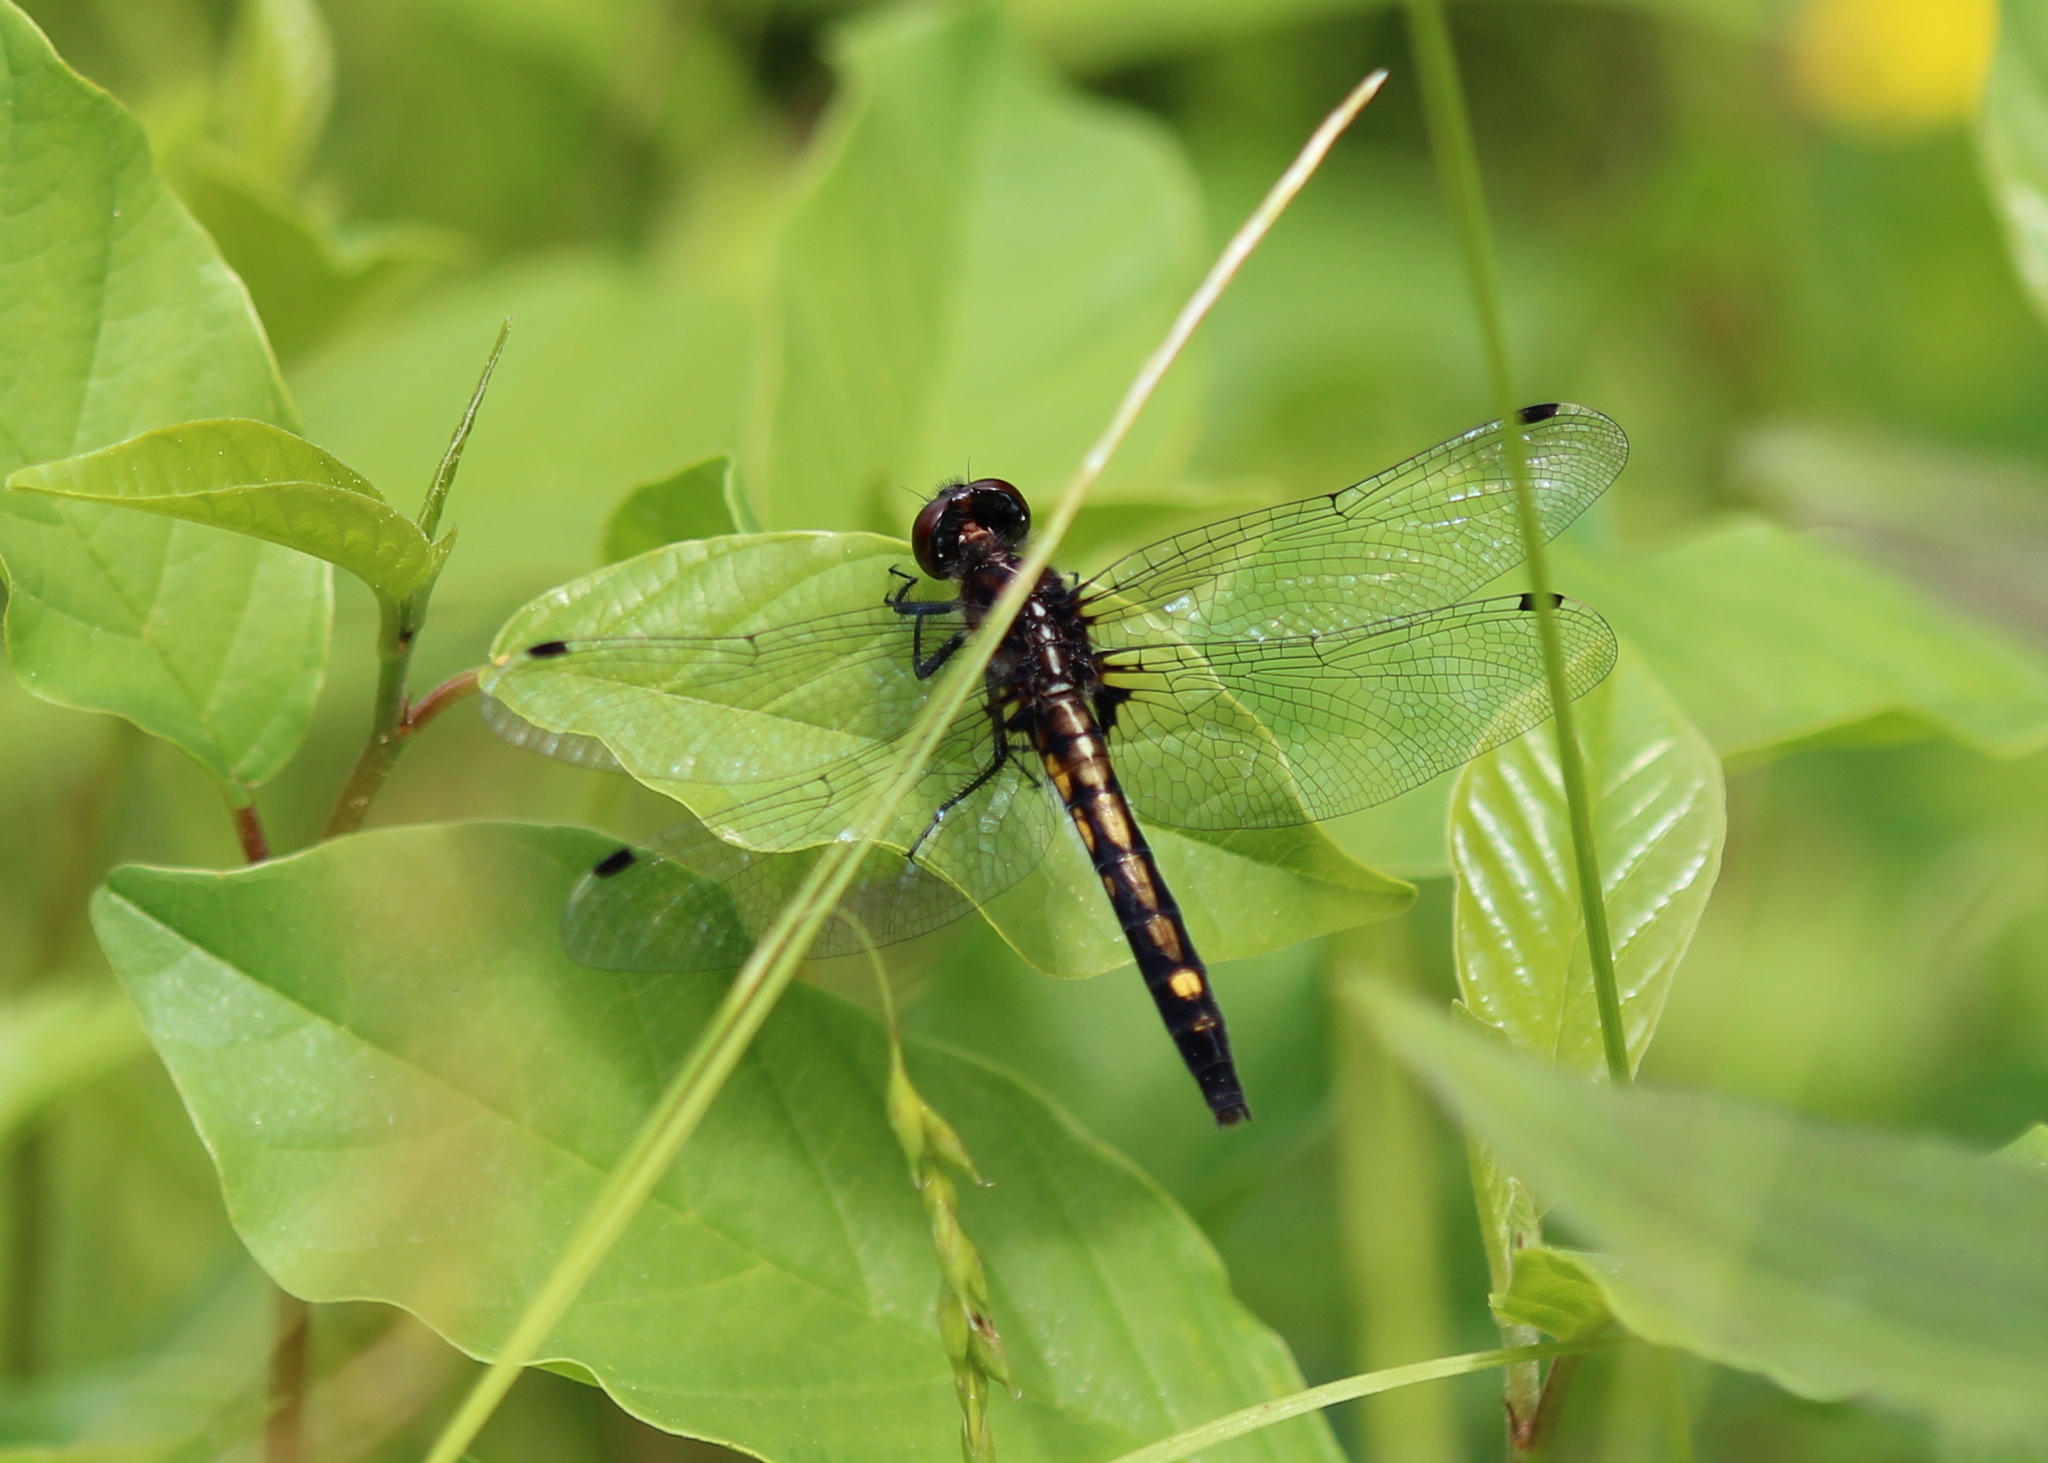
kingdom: Animalia
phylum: Arthropoda
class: Insecta
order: Odonata
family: Libellulidae
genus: Leucorrhinia
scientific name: Leucorrhinia intacta
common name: Dot-tailed whiteface
